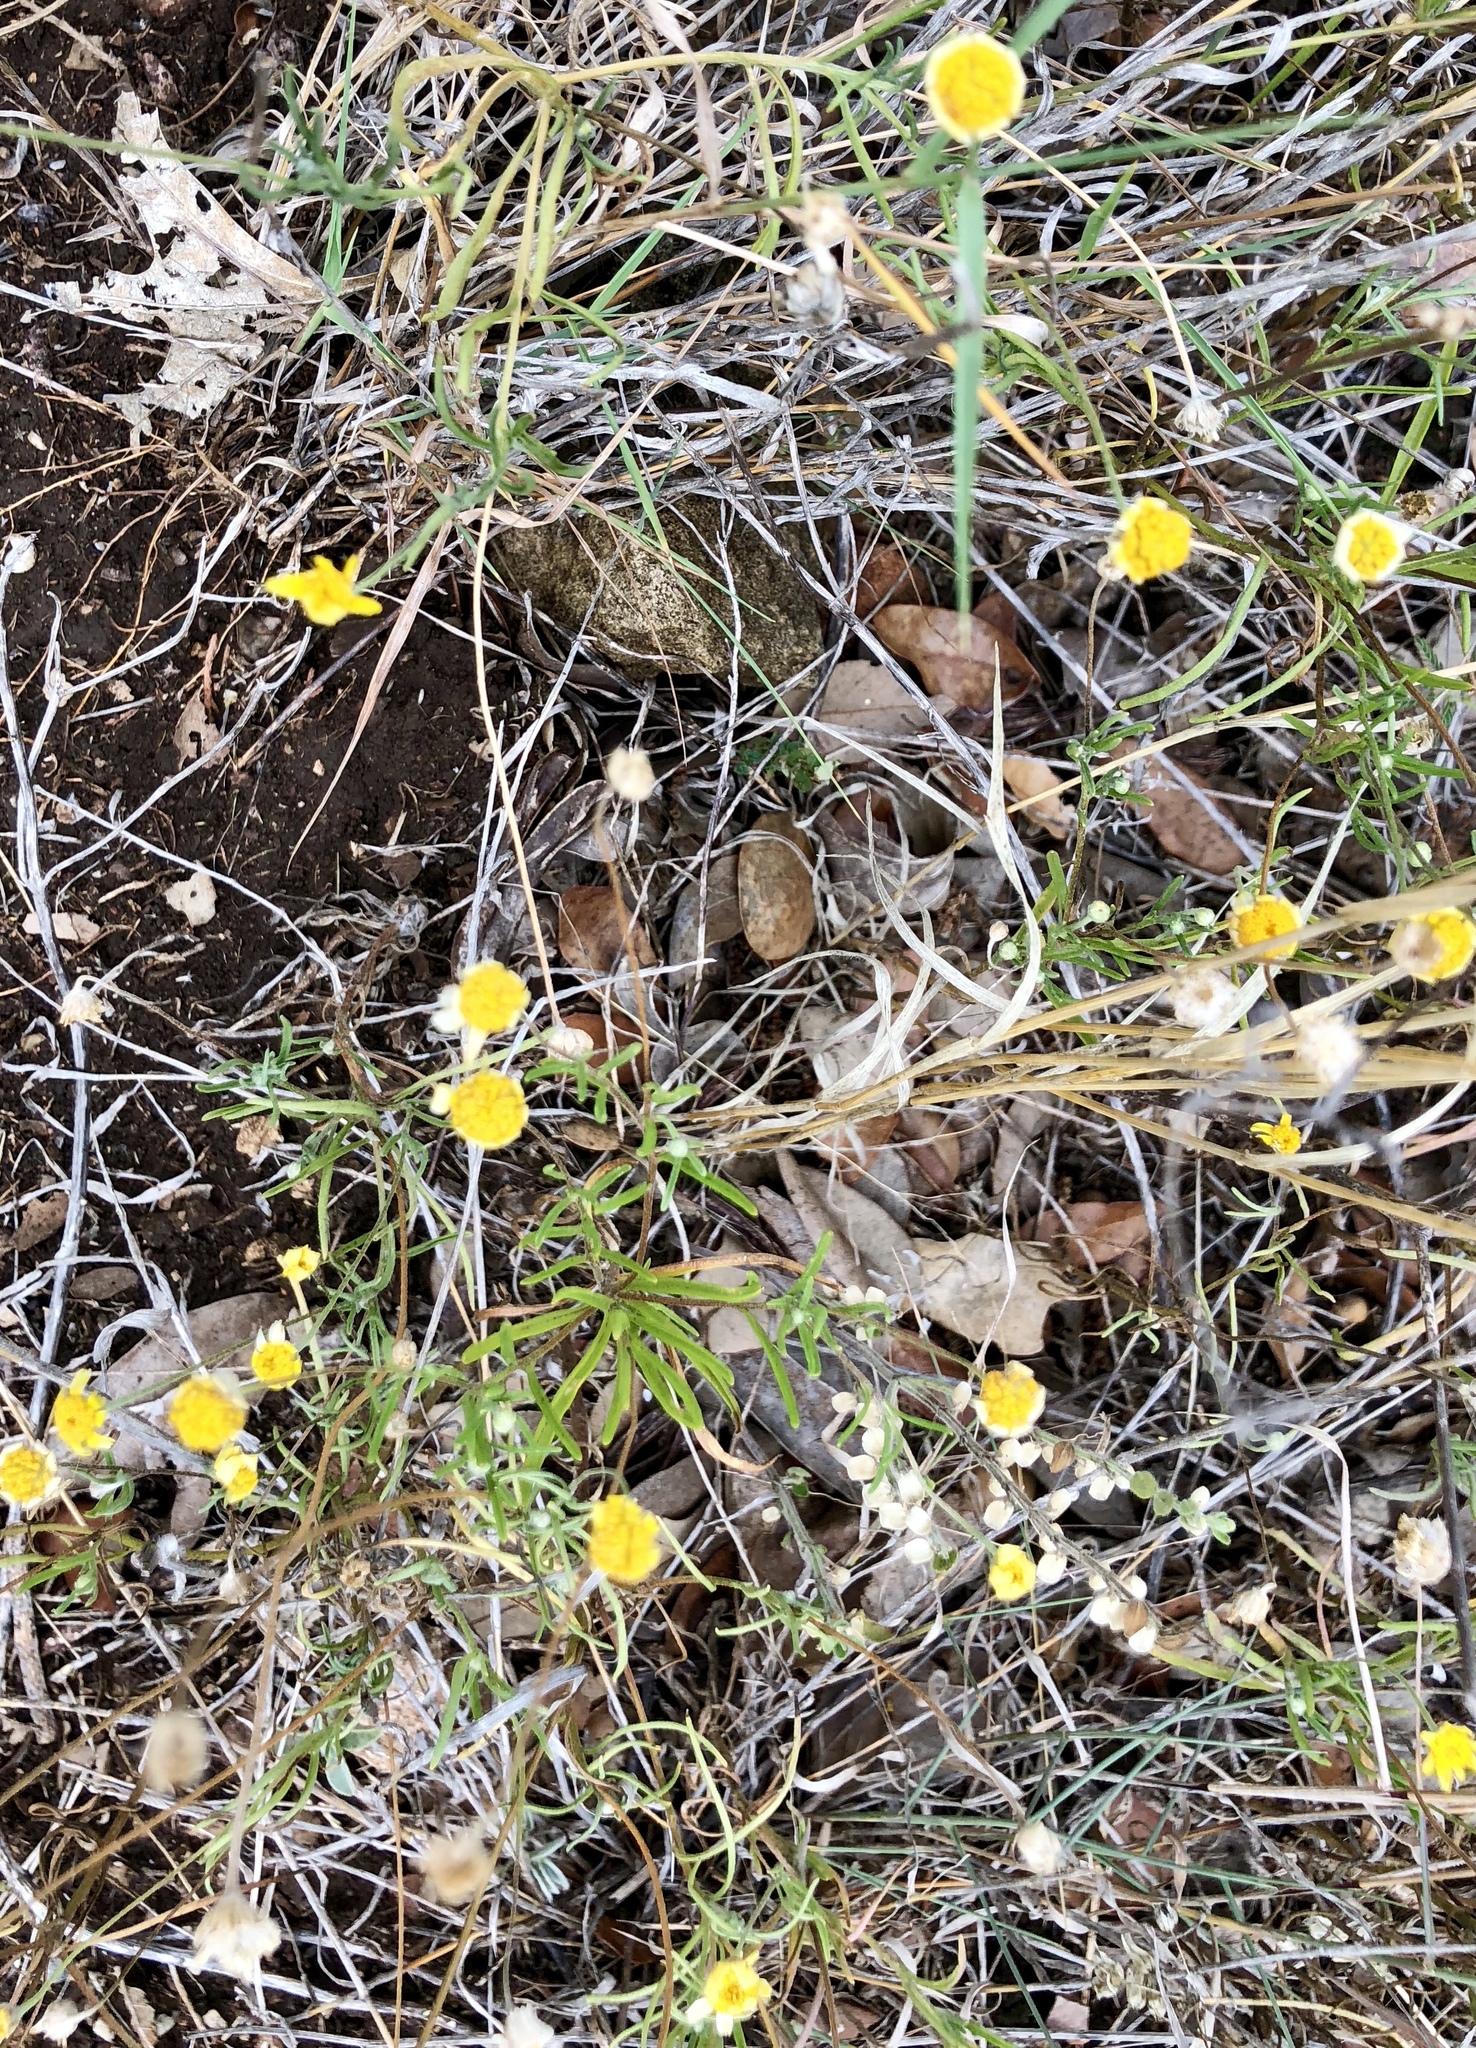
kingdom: Plantae
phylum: Tracheophyta
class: Magnoliopsida
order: Asterales
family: Asteraceae
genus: Tetraneuris
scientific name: Tetraneuris scaposa
